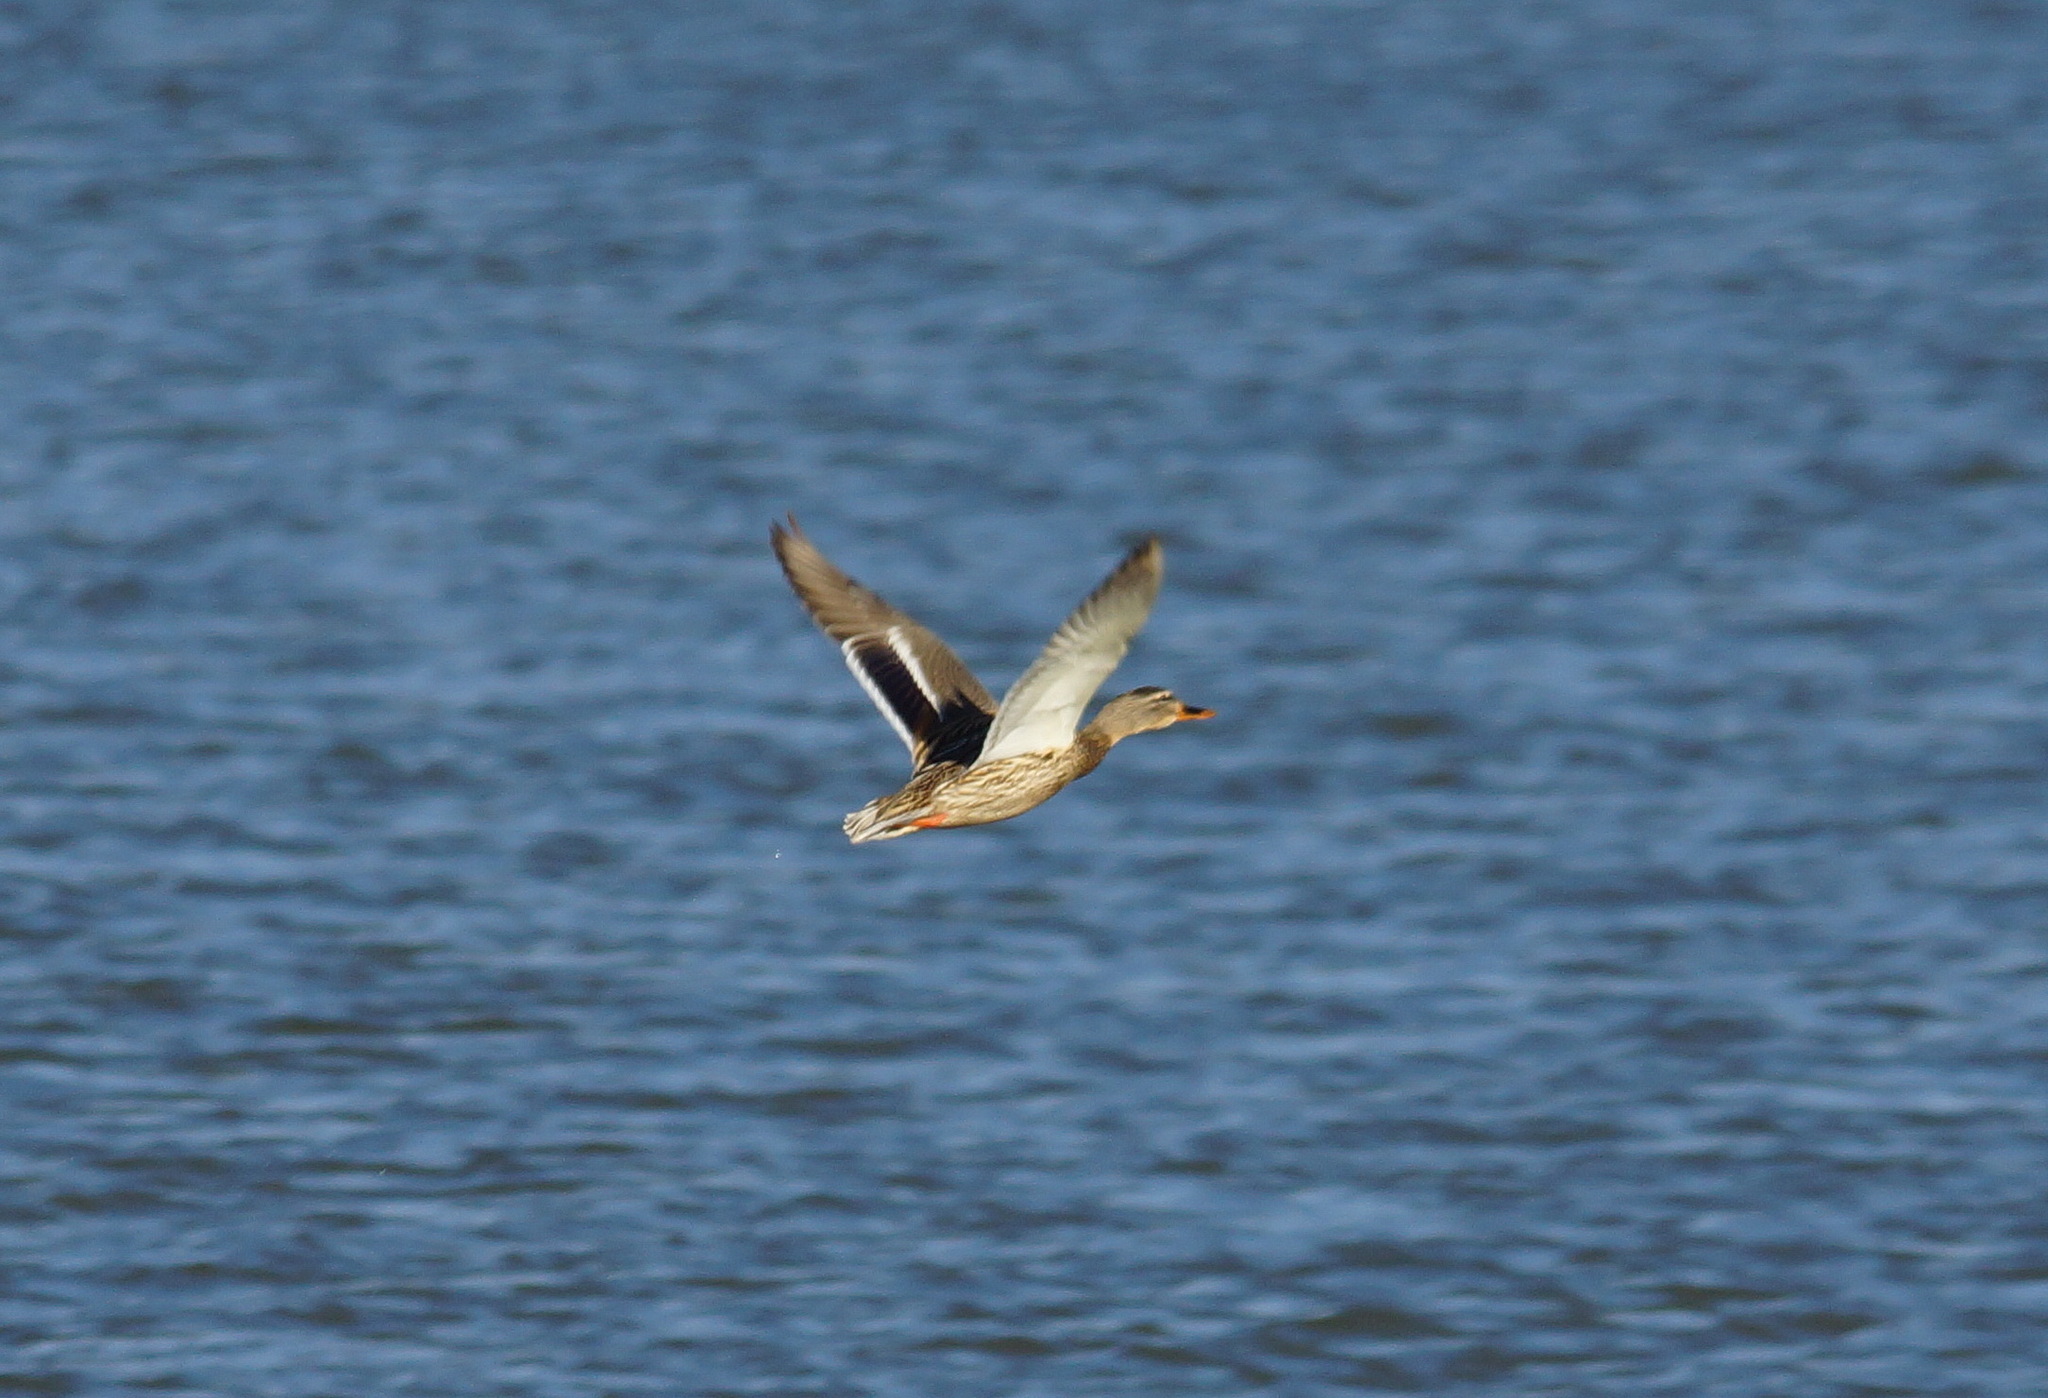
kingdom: Animalia
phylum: Chordata
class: Aves
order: Anseriformes
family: Anatidae
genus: Anas
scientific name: Anas platyrhynchos
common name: Mallard
